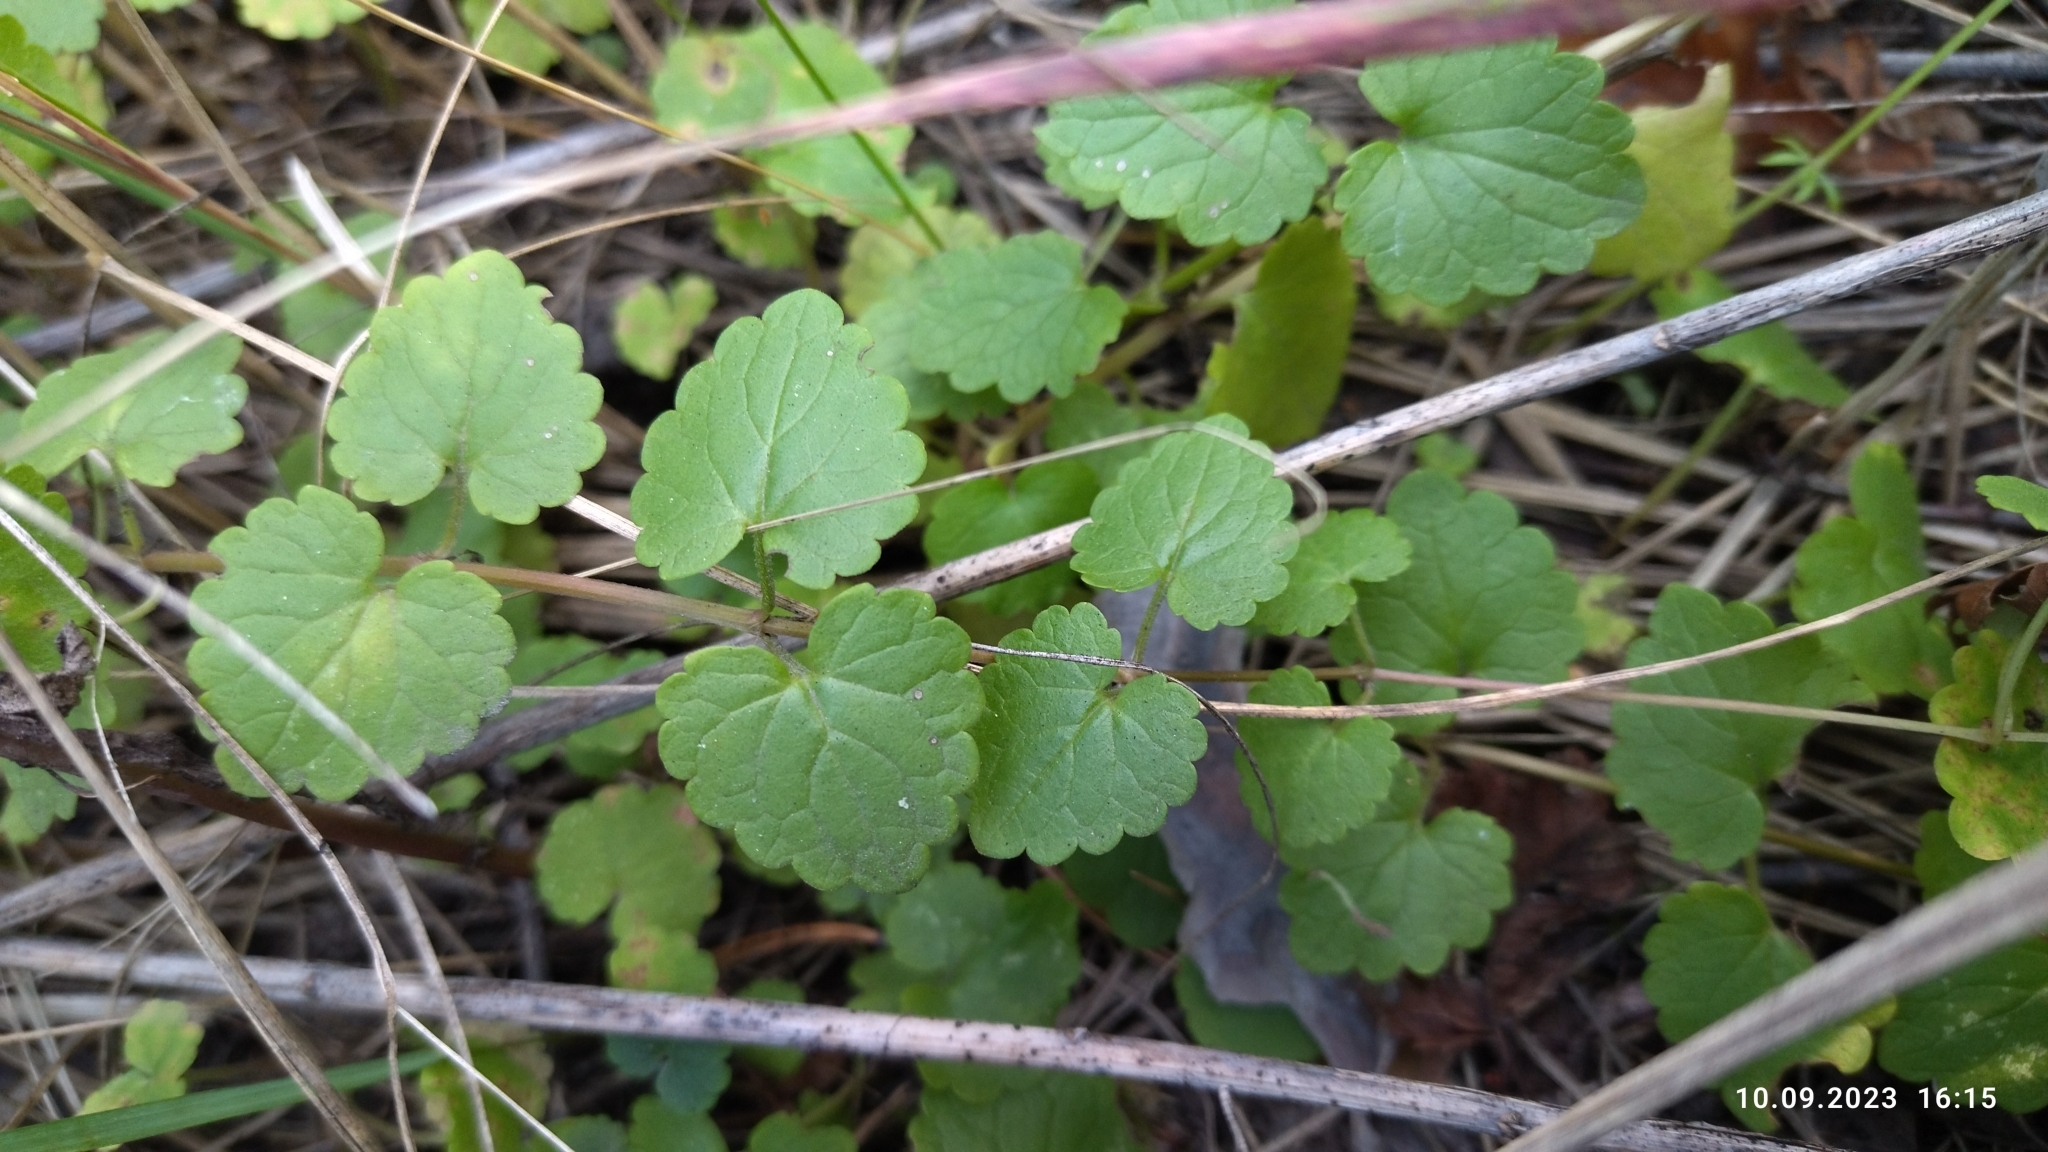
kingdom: Plantae
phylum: Tracheophyta
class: Magnoliopsida
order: Lamiales
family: Lamiaceae
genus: Glechoma
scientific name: Glechoma hederacea
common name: Ground ivy
